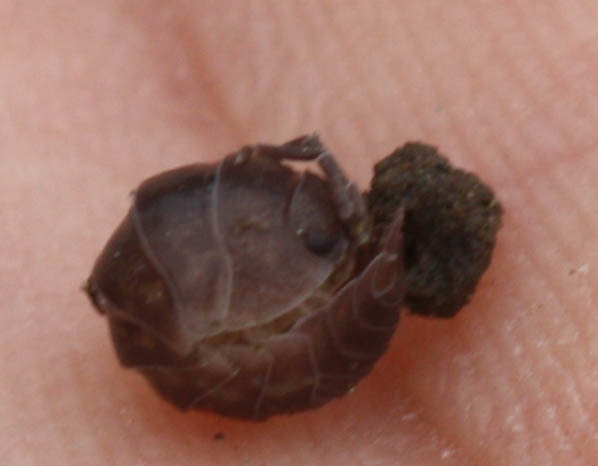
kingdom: Animalia
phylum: Arthropoda
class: Malacostraca
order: Isopoda
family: Cylisticidae
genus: Cylisticus
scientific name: Cylisticus convexus
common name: Curly woodlouse
